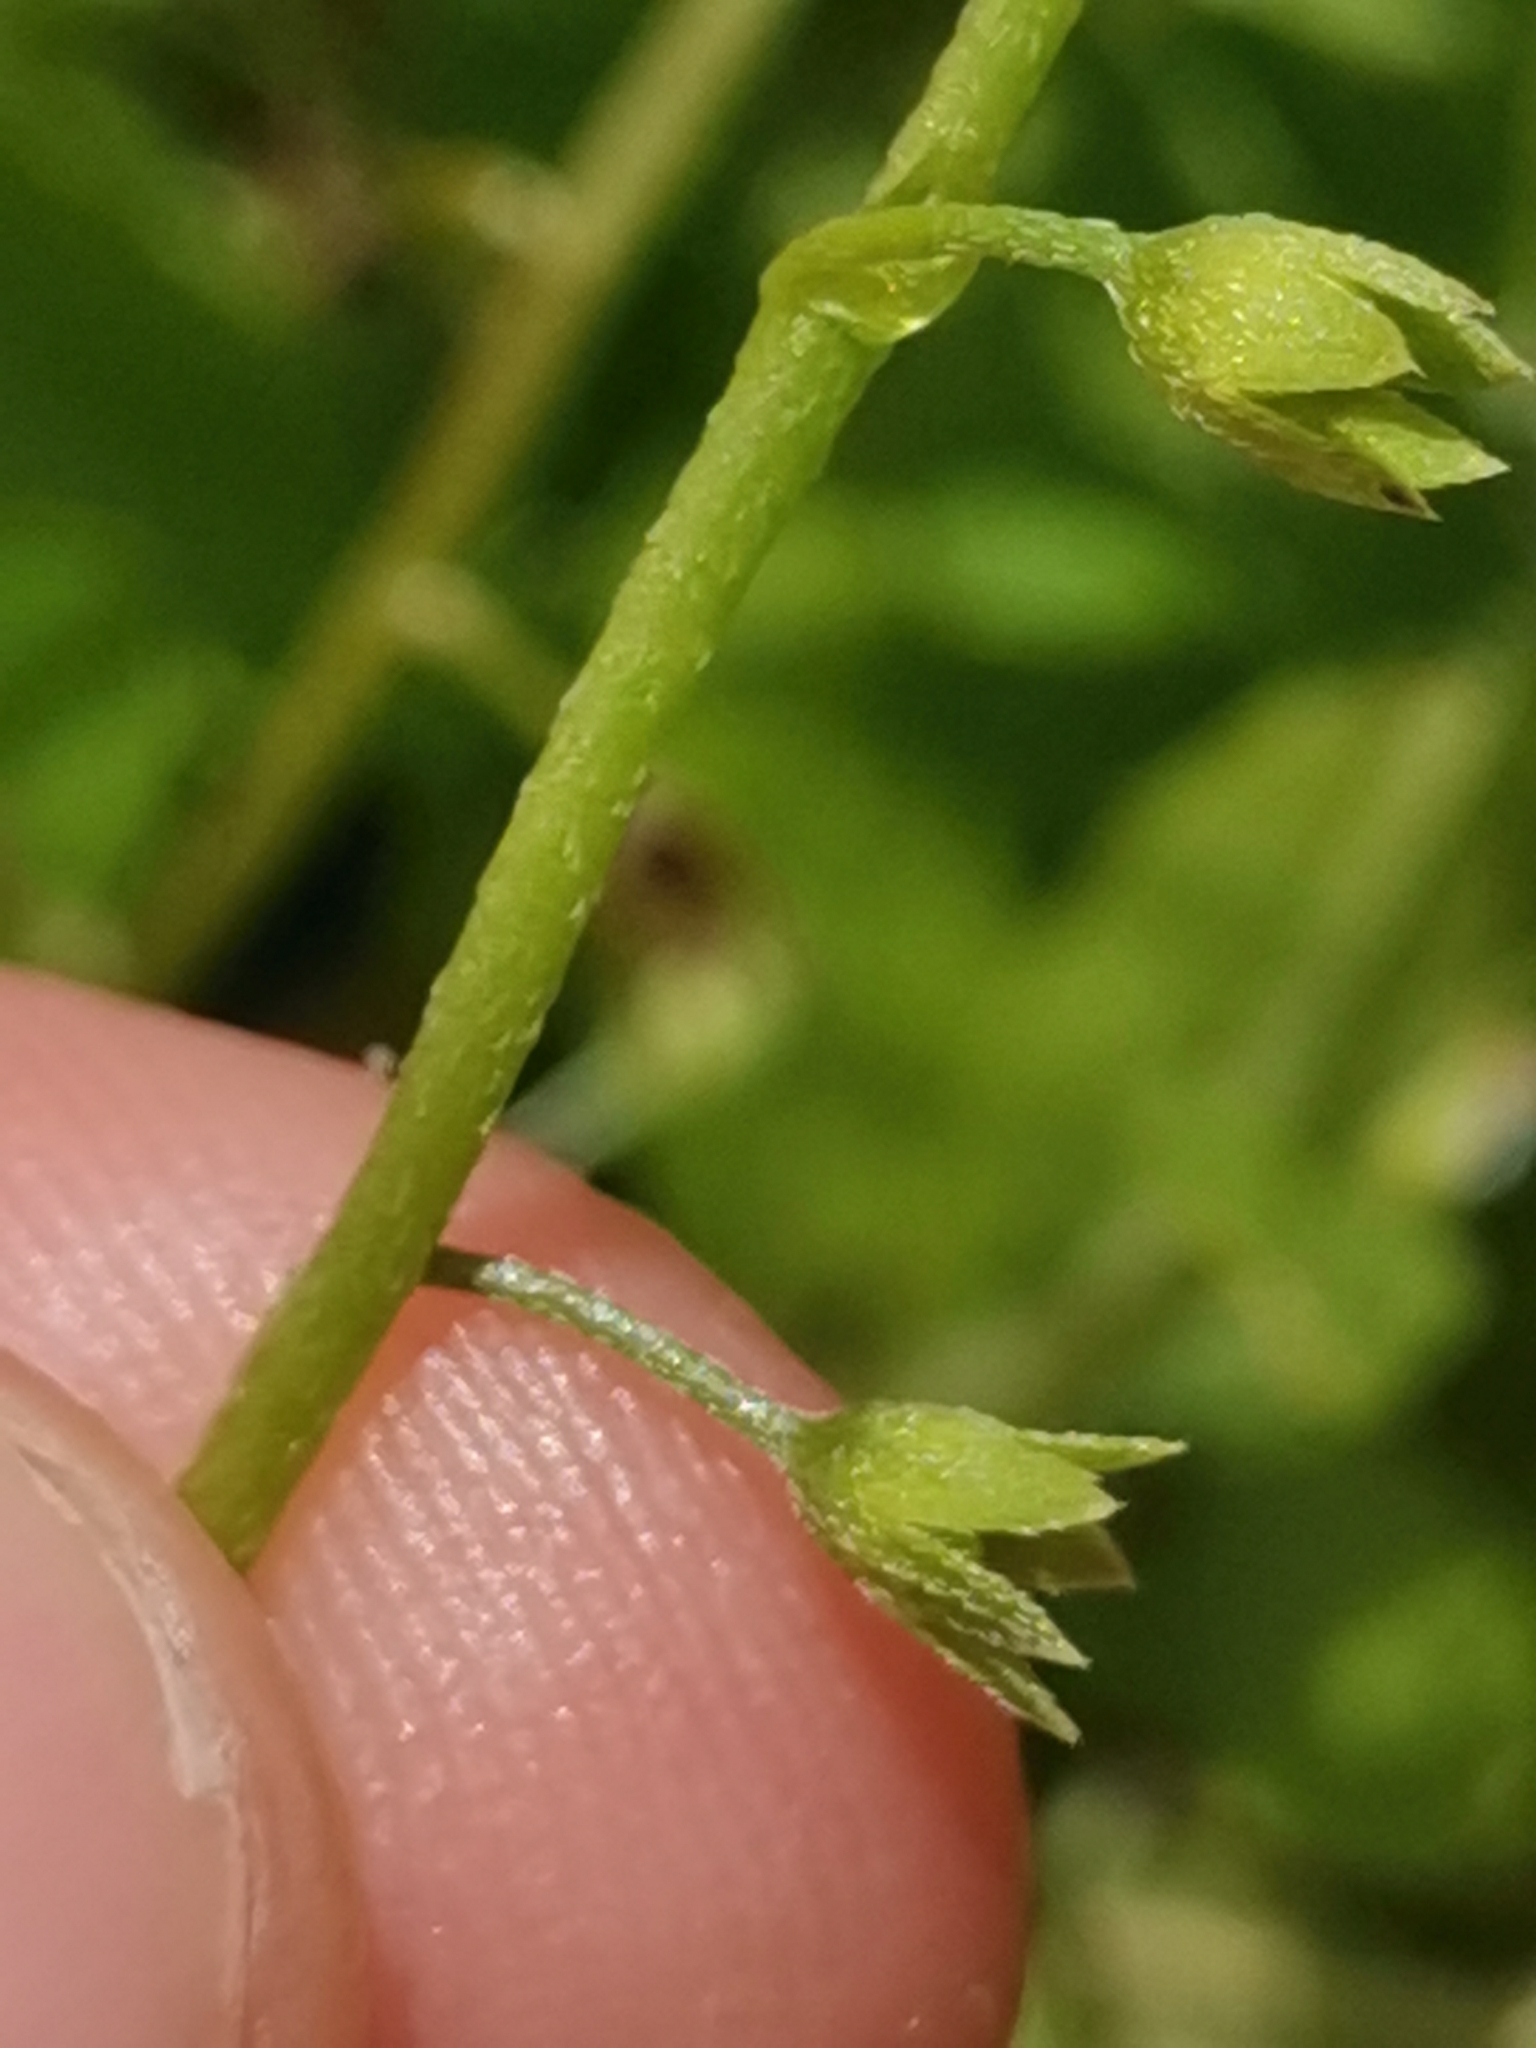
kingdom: Plantae
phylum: Tracheophyta
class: Magnoliopsida
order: Boraginales
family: Boraginaceae
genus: Myosotis
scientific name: Myosotis secunda
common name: Creeping forget-me-not
